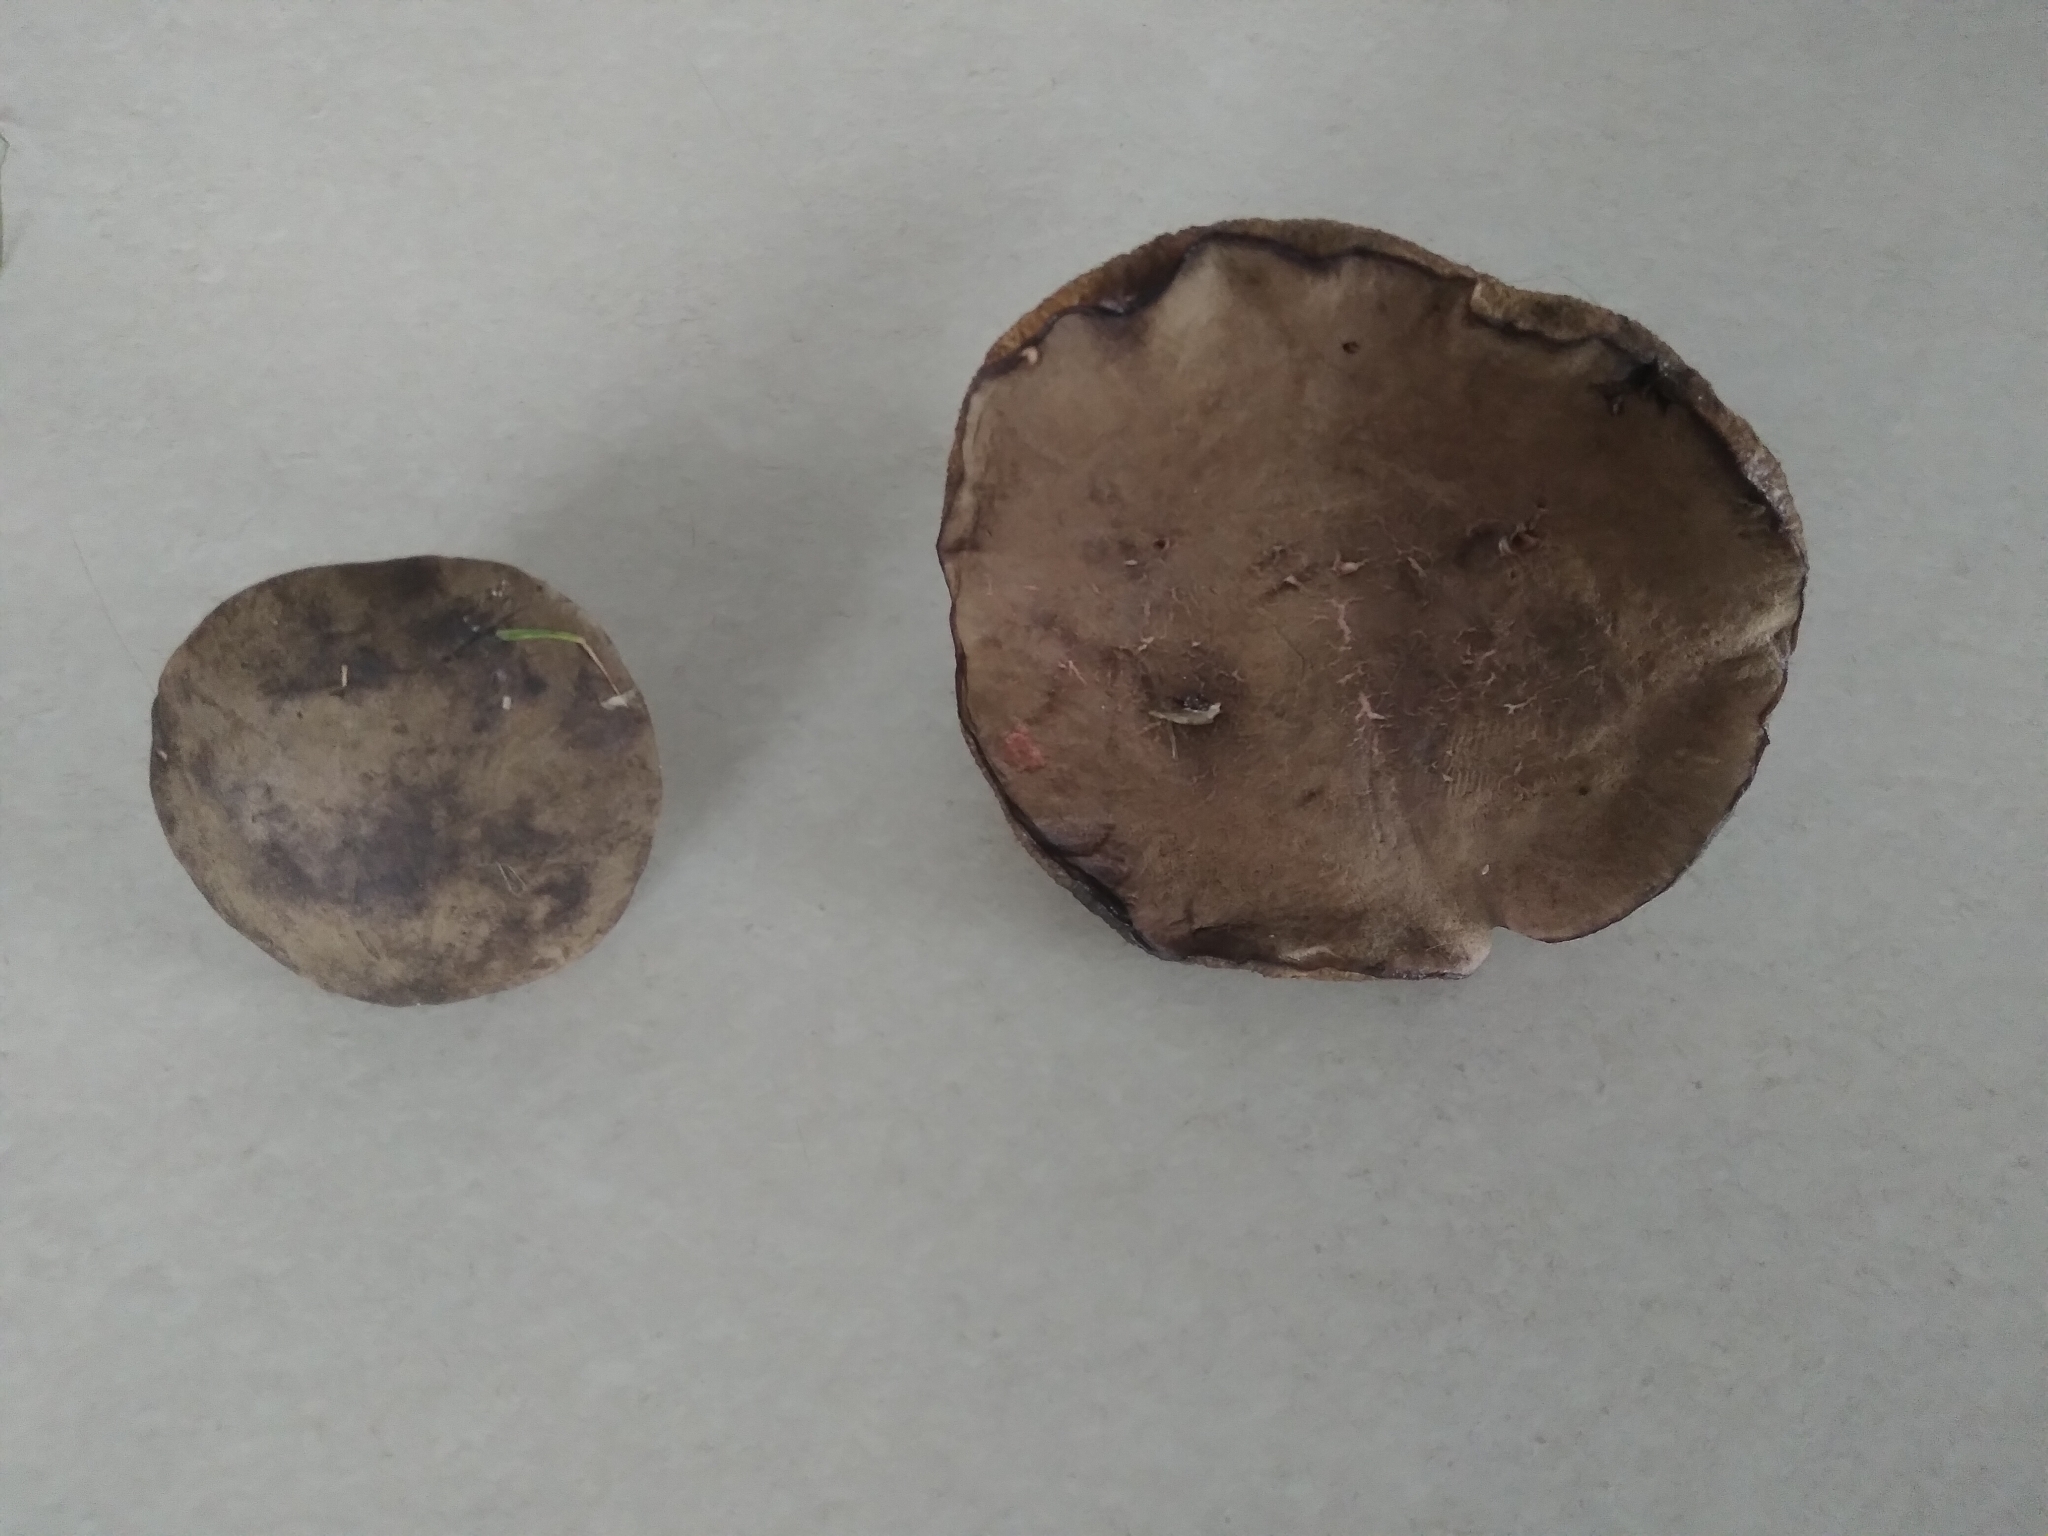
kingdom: Fungi
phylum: Basidiomycota
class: Agaricomycetes
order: Boletales
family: Boletaceae
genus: Xerocomellus
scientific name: Xerocomellus cisalpinus
